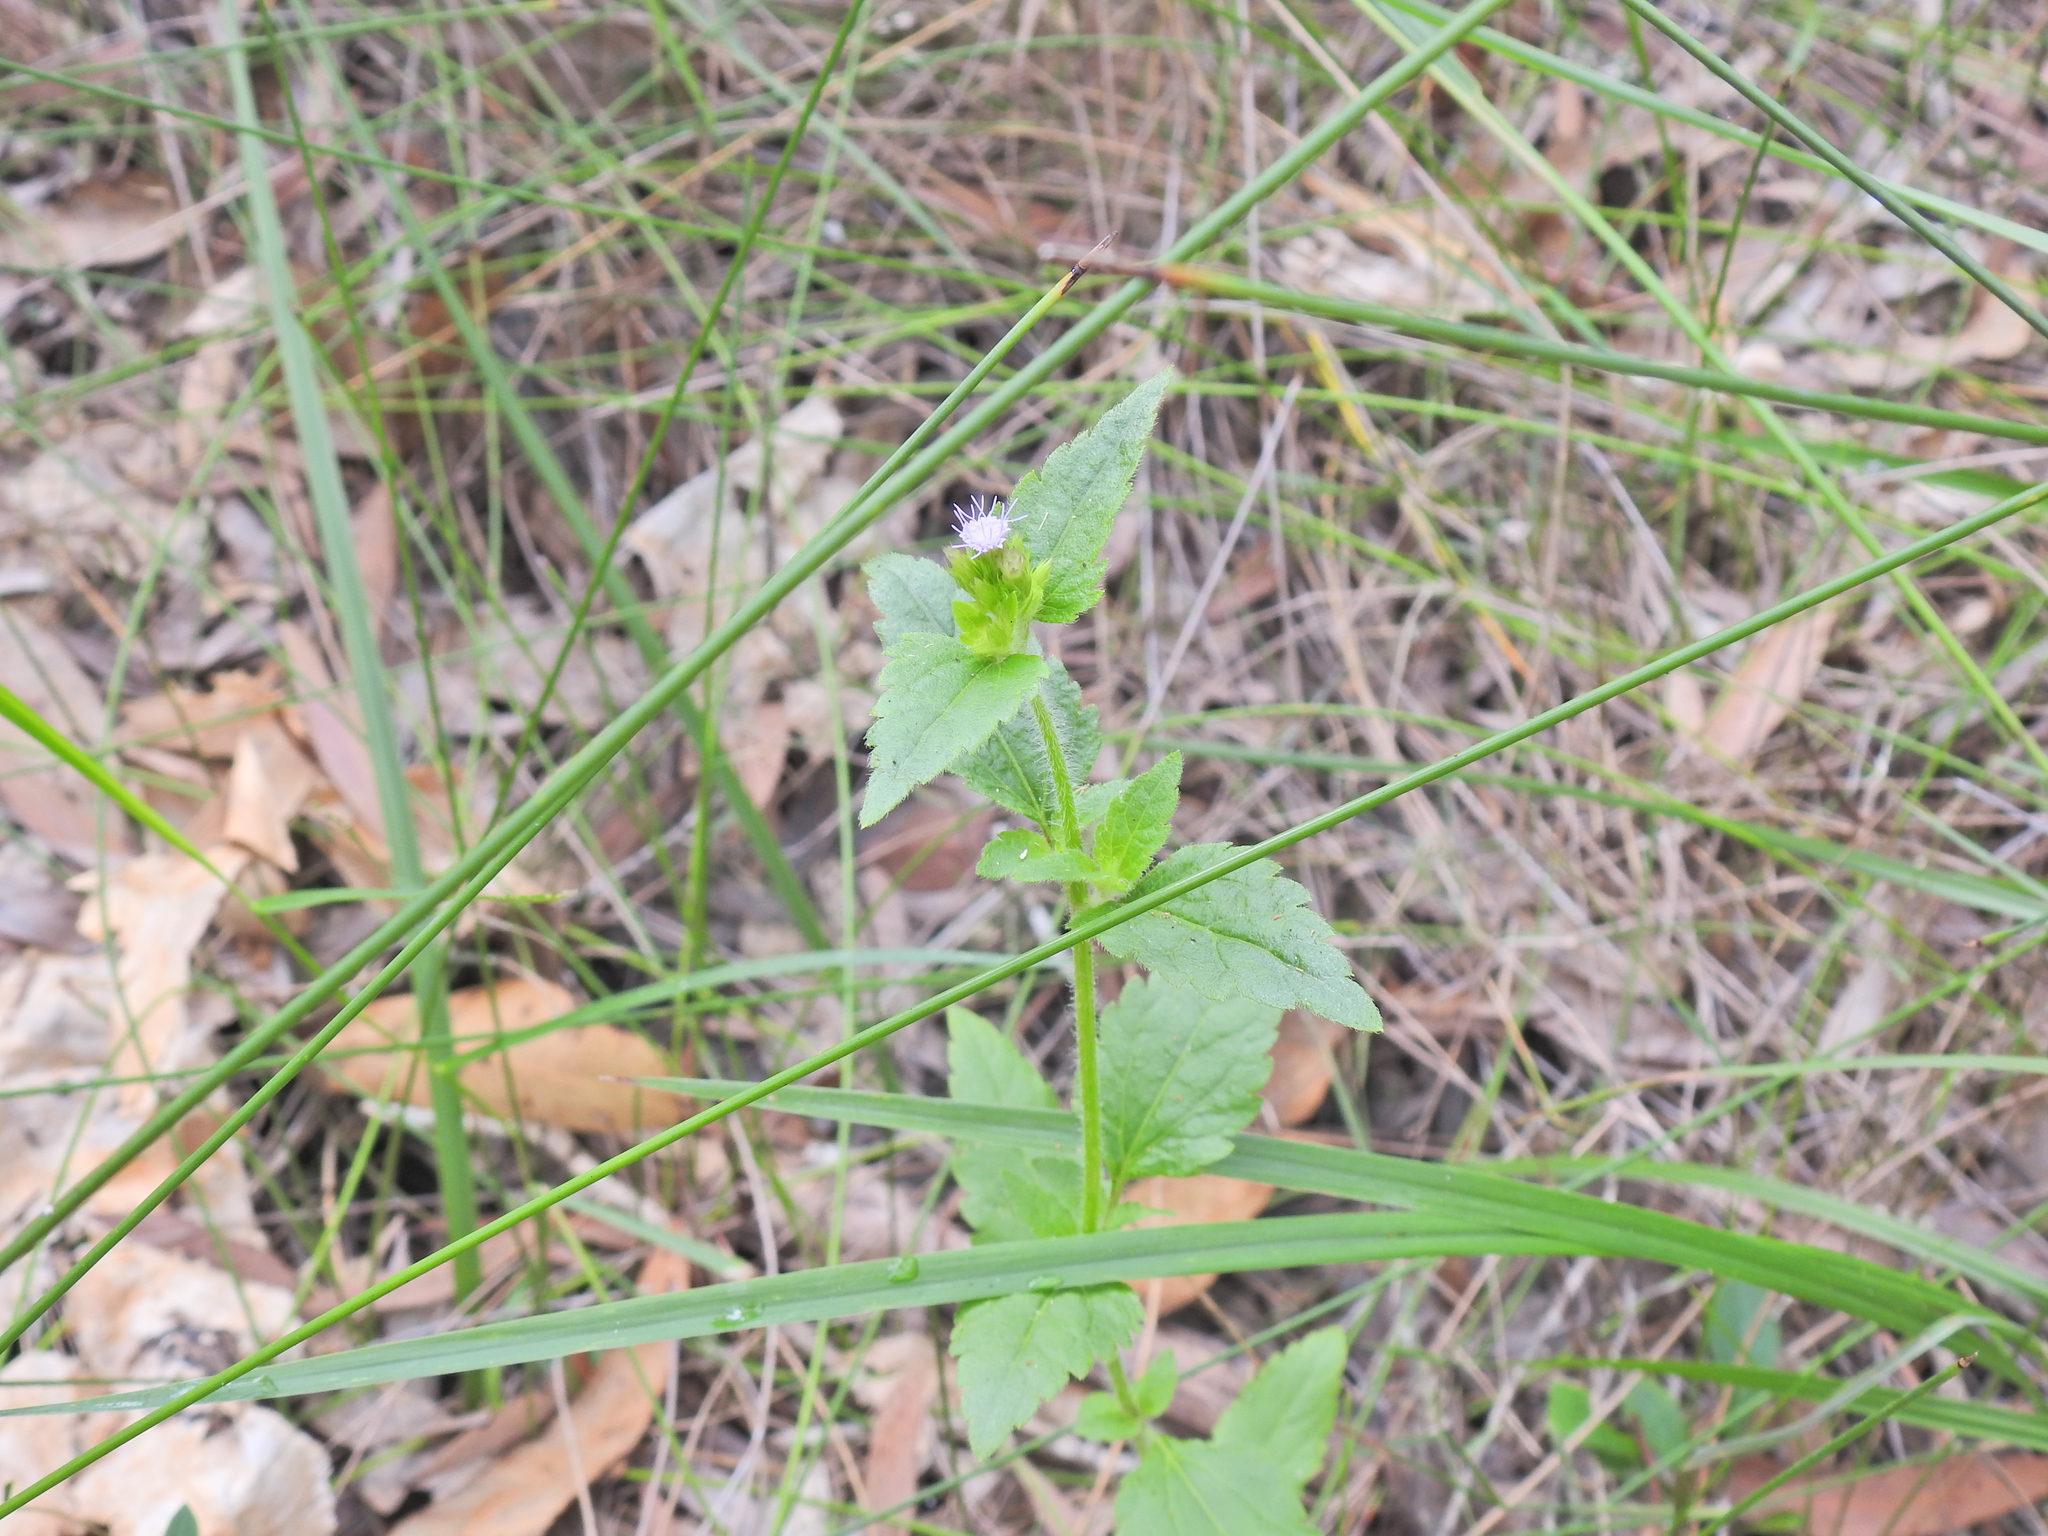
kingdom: Plantae
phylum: Tracheophyta
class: Magnoliopsida
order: Asterales
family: Asteraceae
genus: Praxelis
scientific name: Praxelis clematidea
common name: Praxelis
